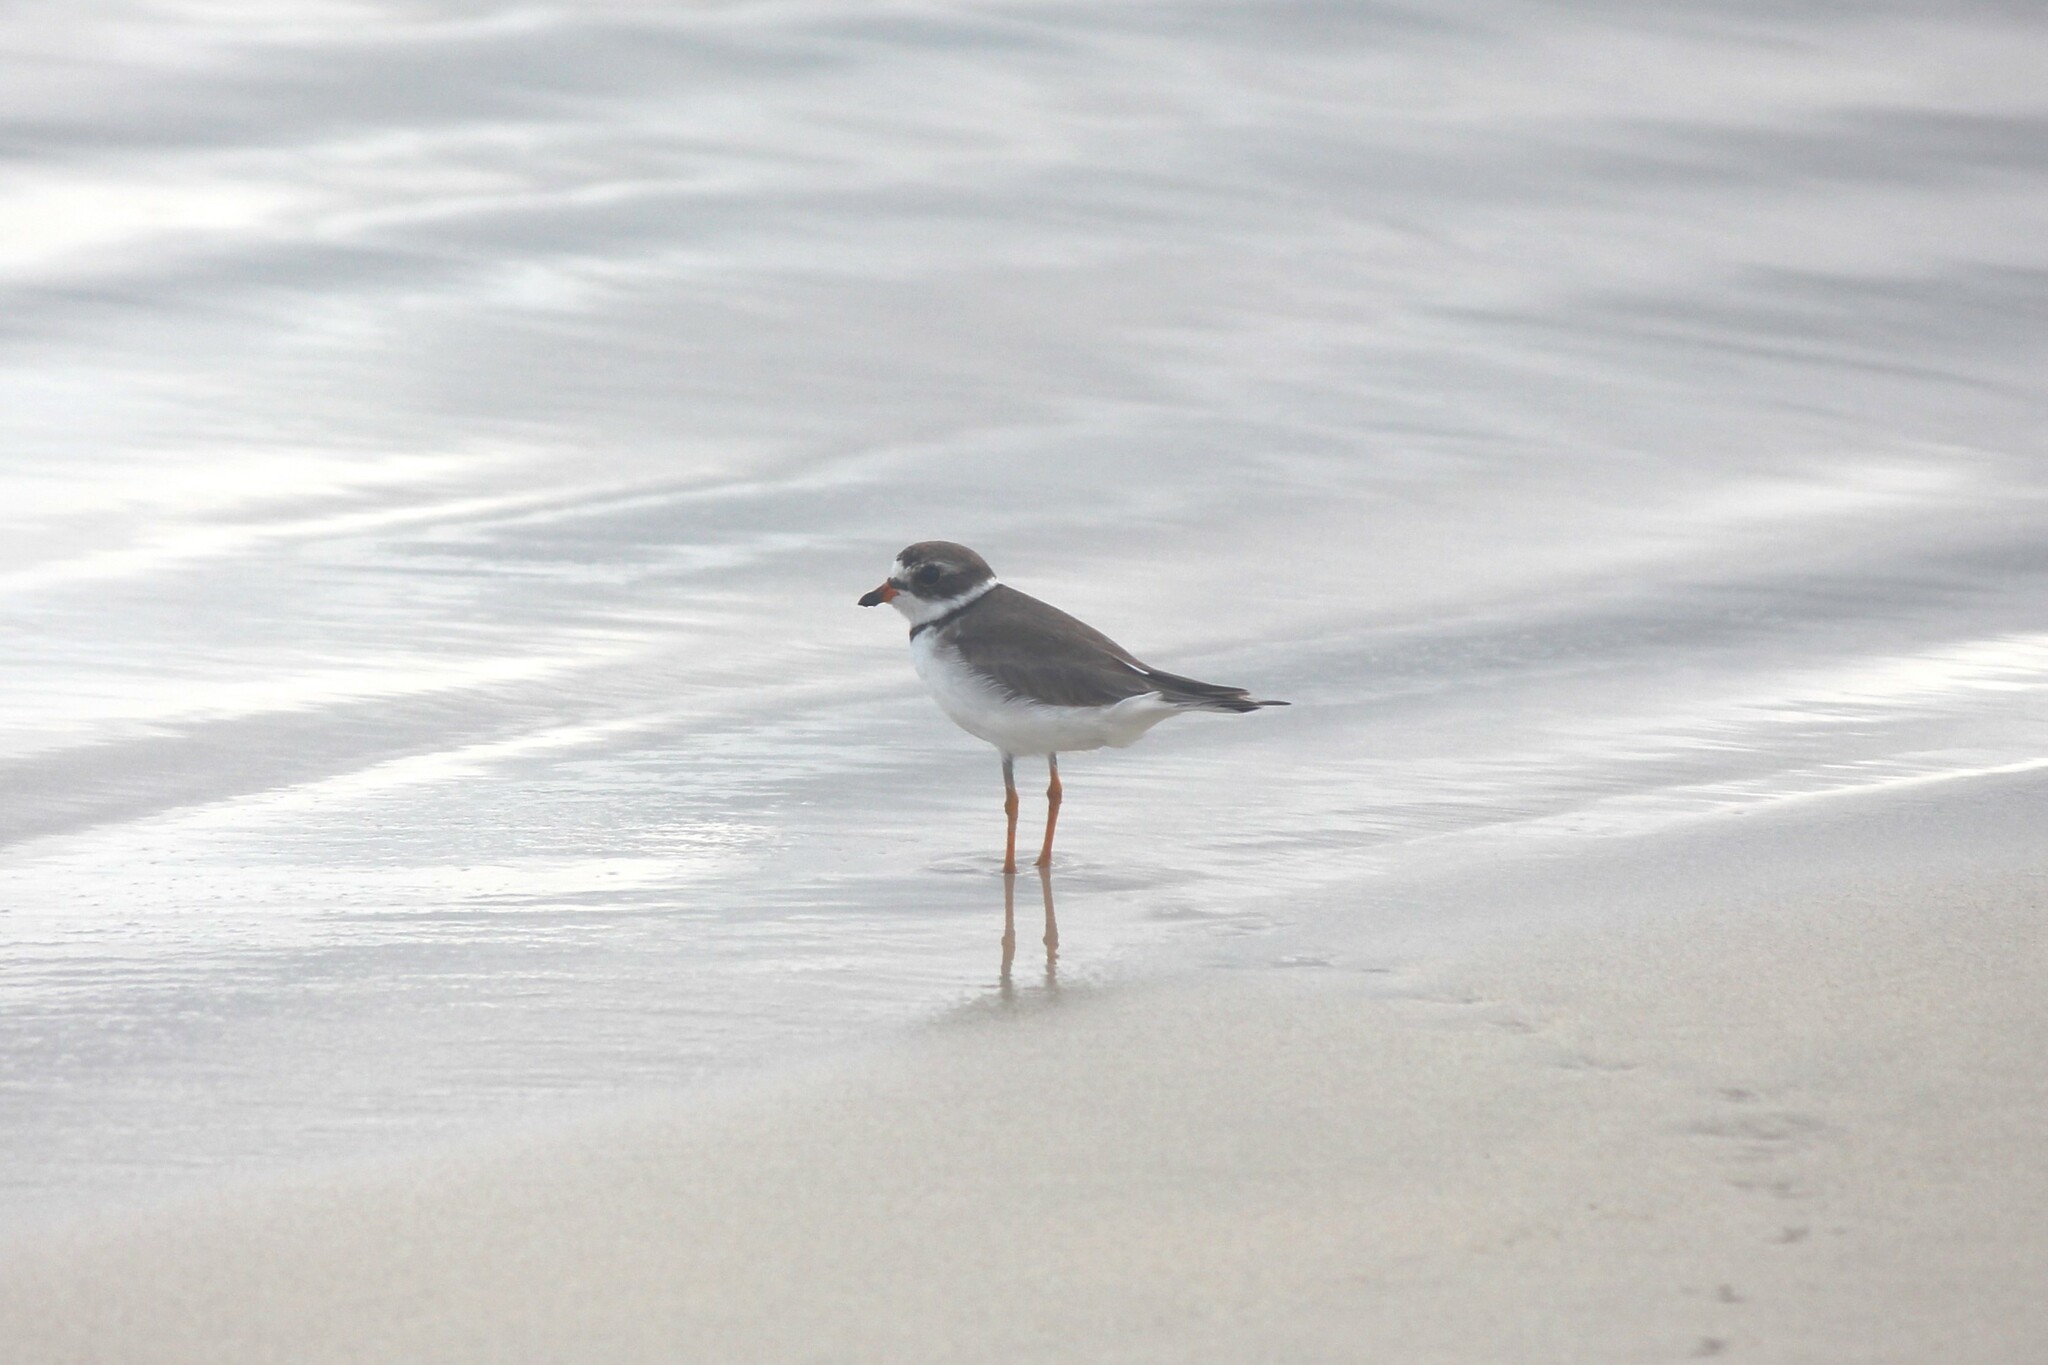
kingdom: Animalia
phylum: Chordata
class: Aves
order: Charadriiformes
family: Charadriidae
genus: Charadrius
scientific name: Charadrius semipalmatus
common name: Semipalmated plover
